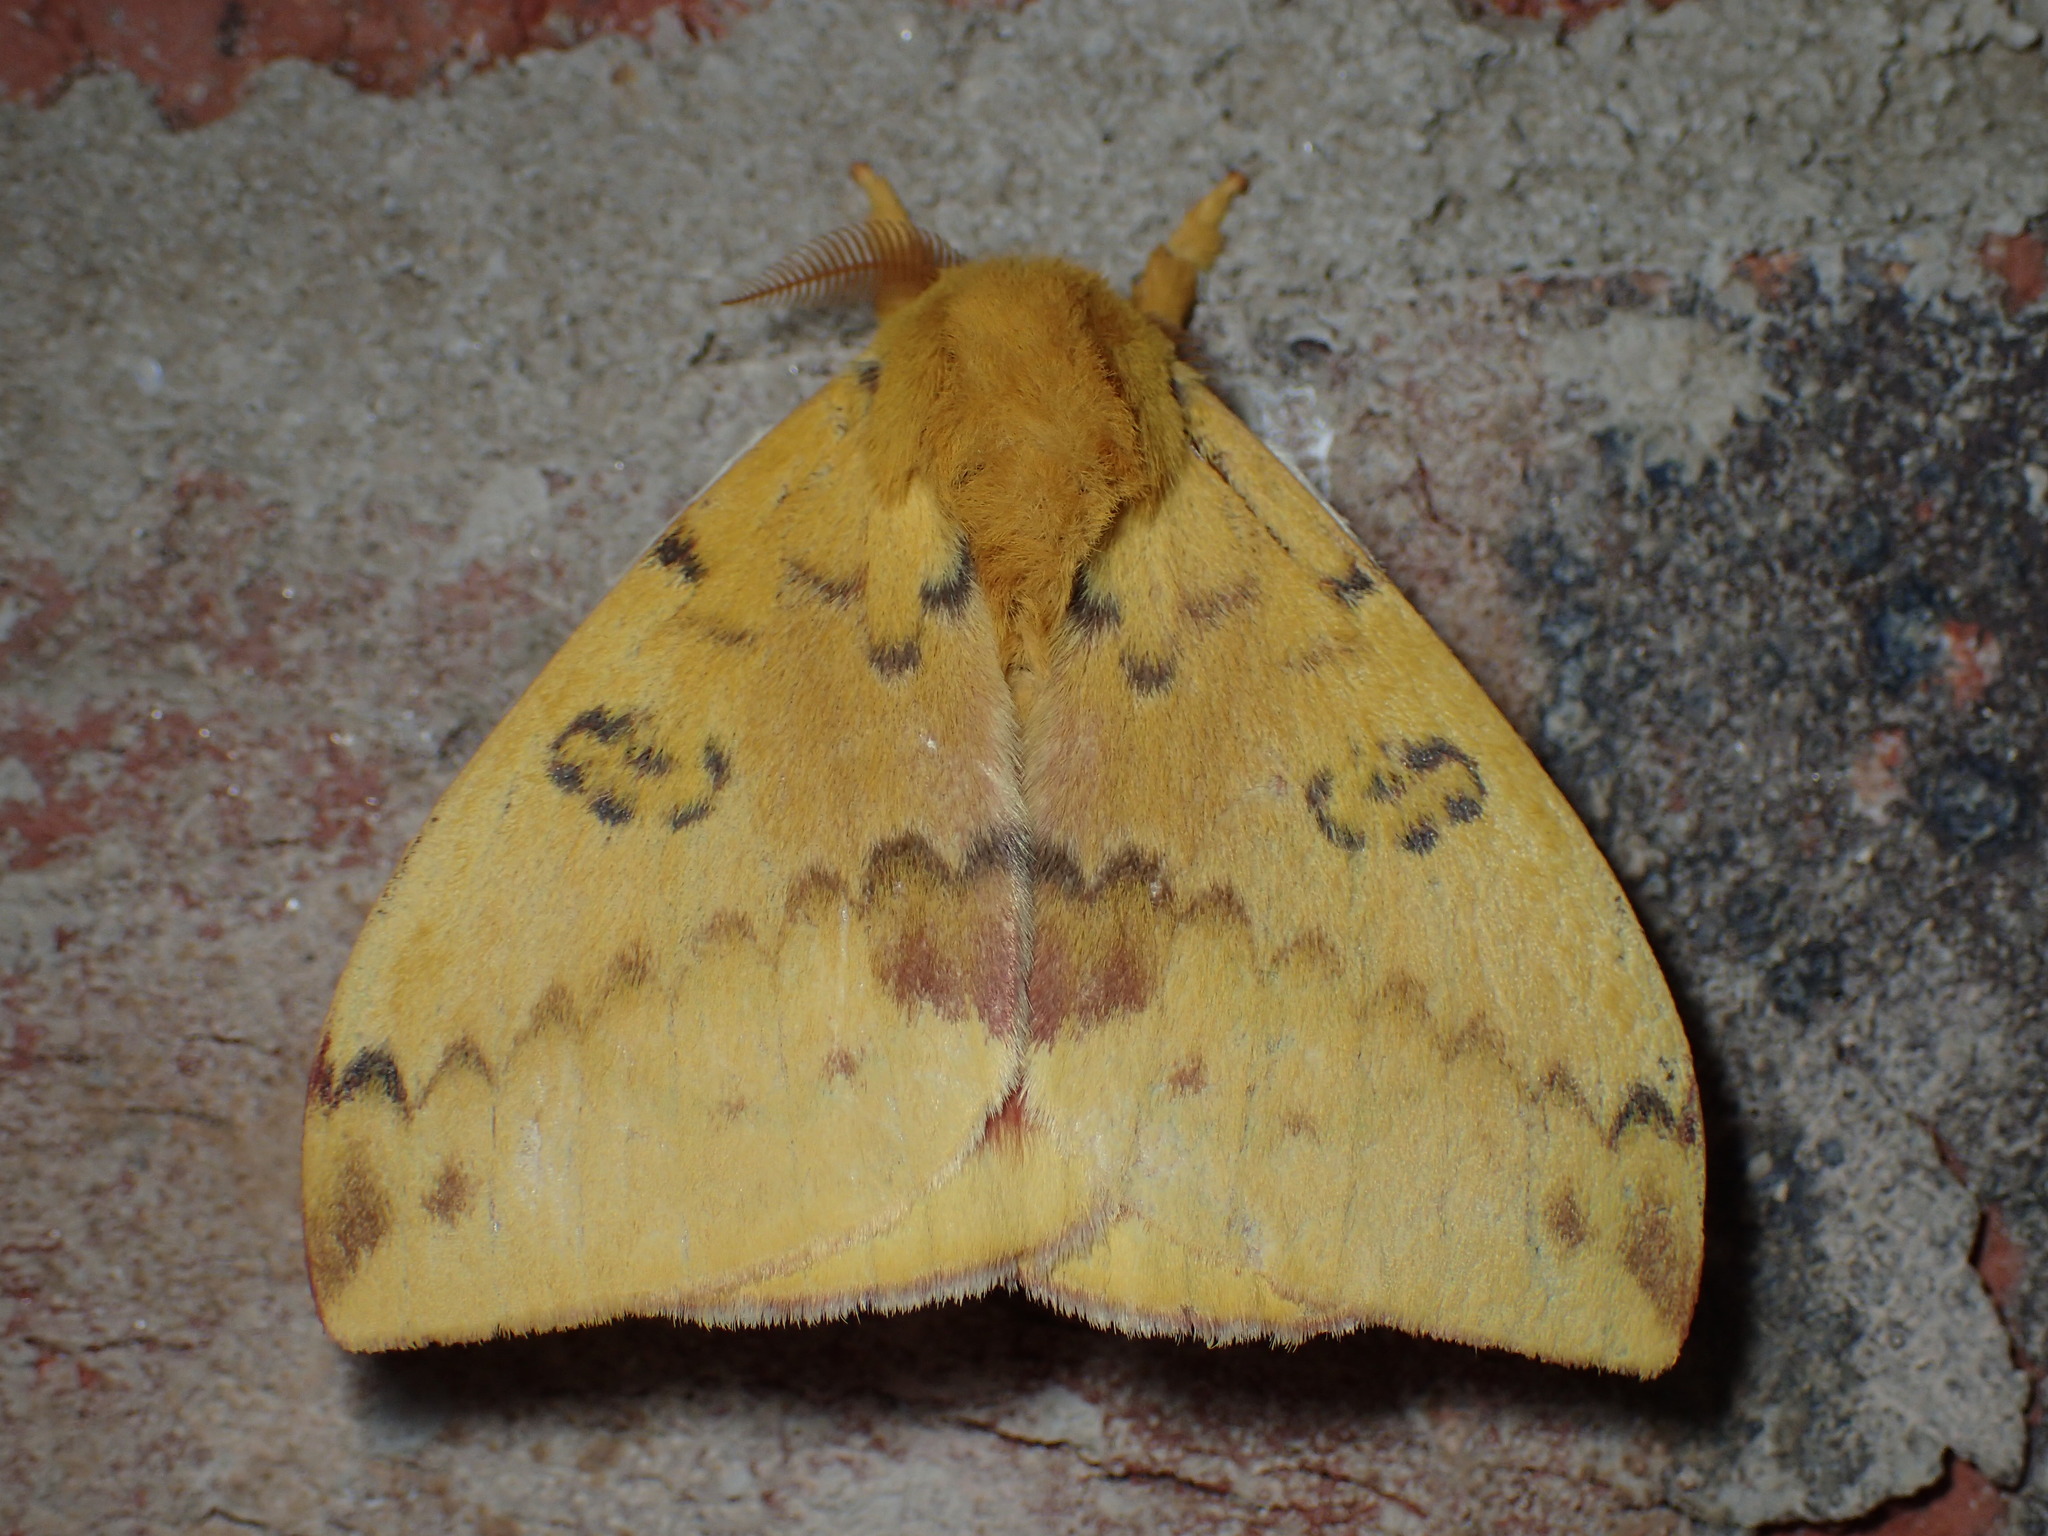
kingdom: Animalia
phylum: Arthropoda
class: Insecta
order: Lepidoptera
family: Saturniidae
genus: Automeris
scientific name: Automeris io
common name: Io moth
